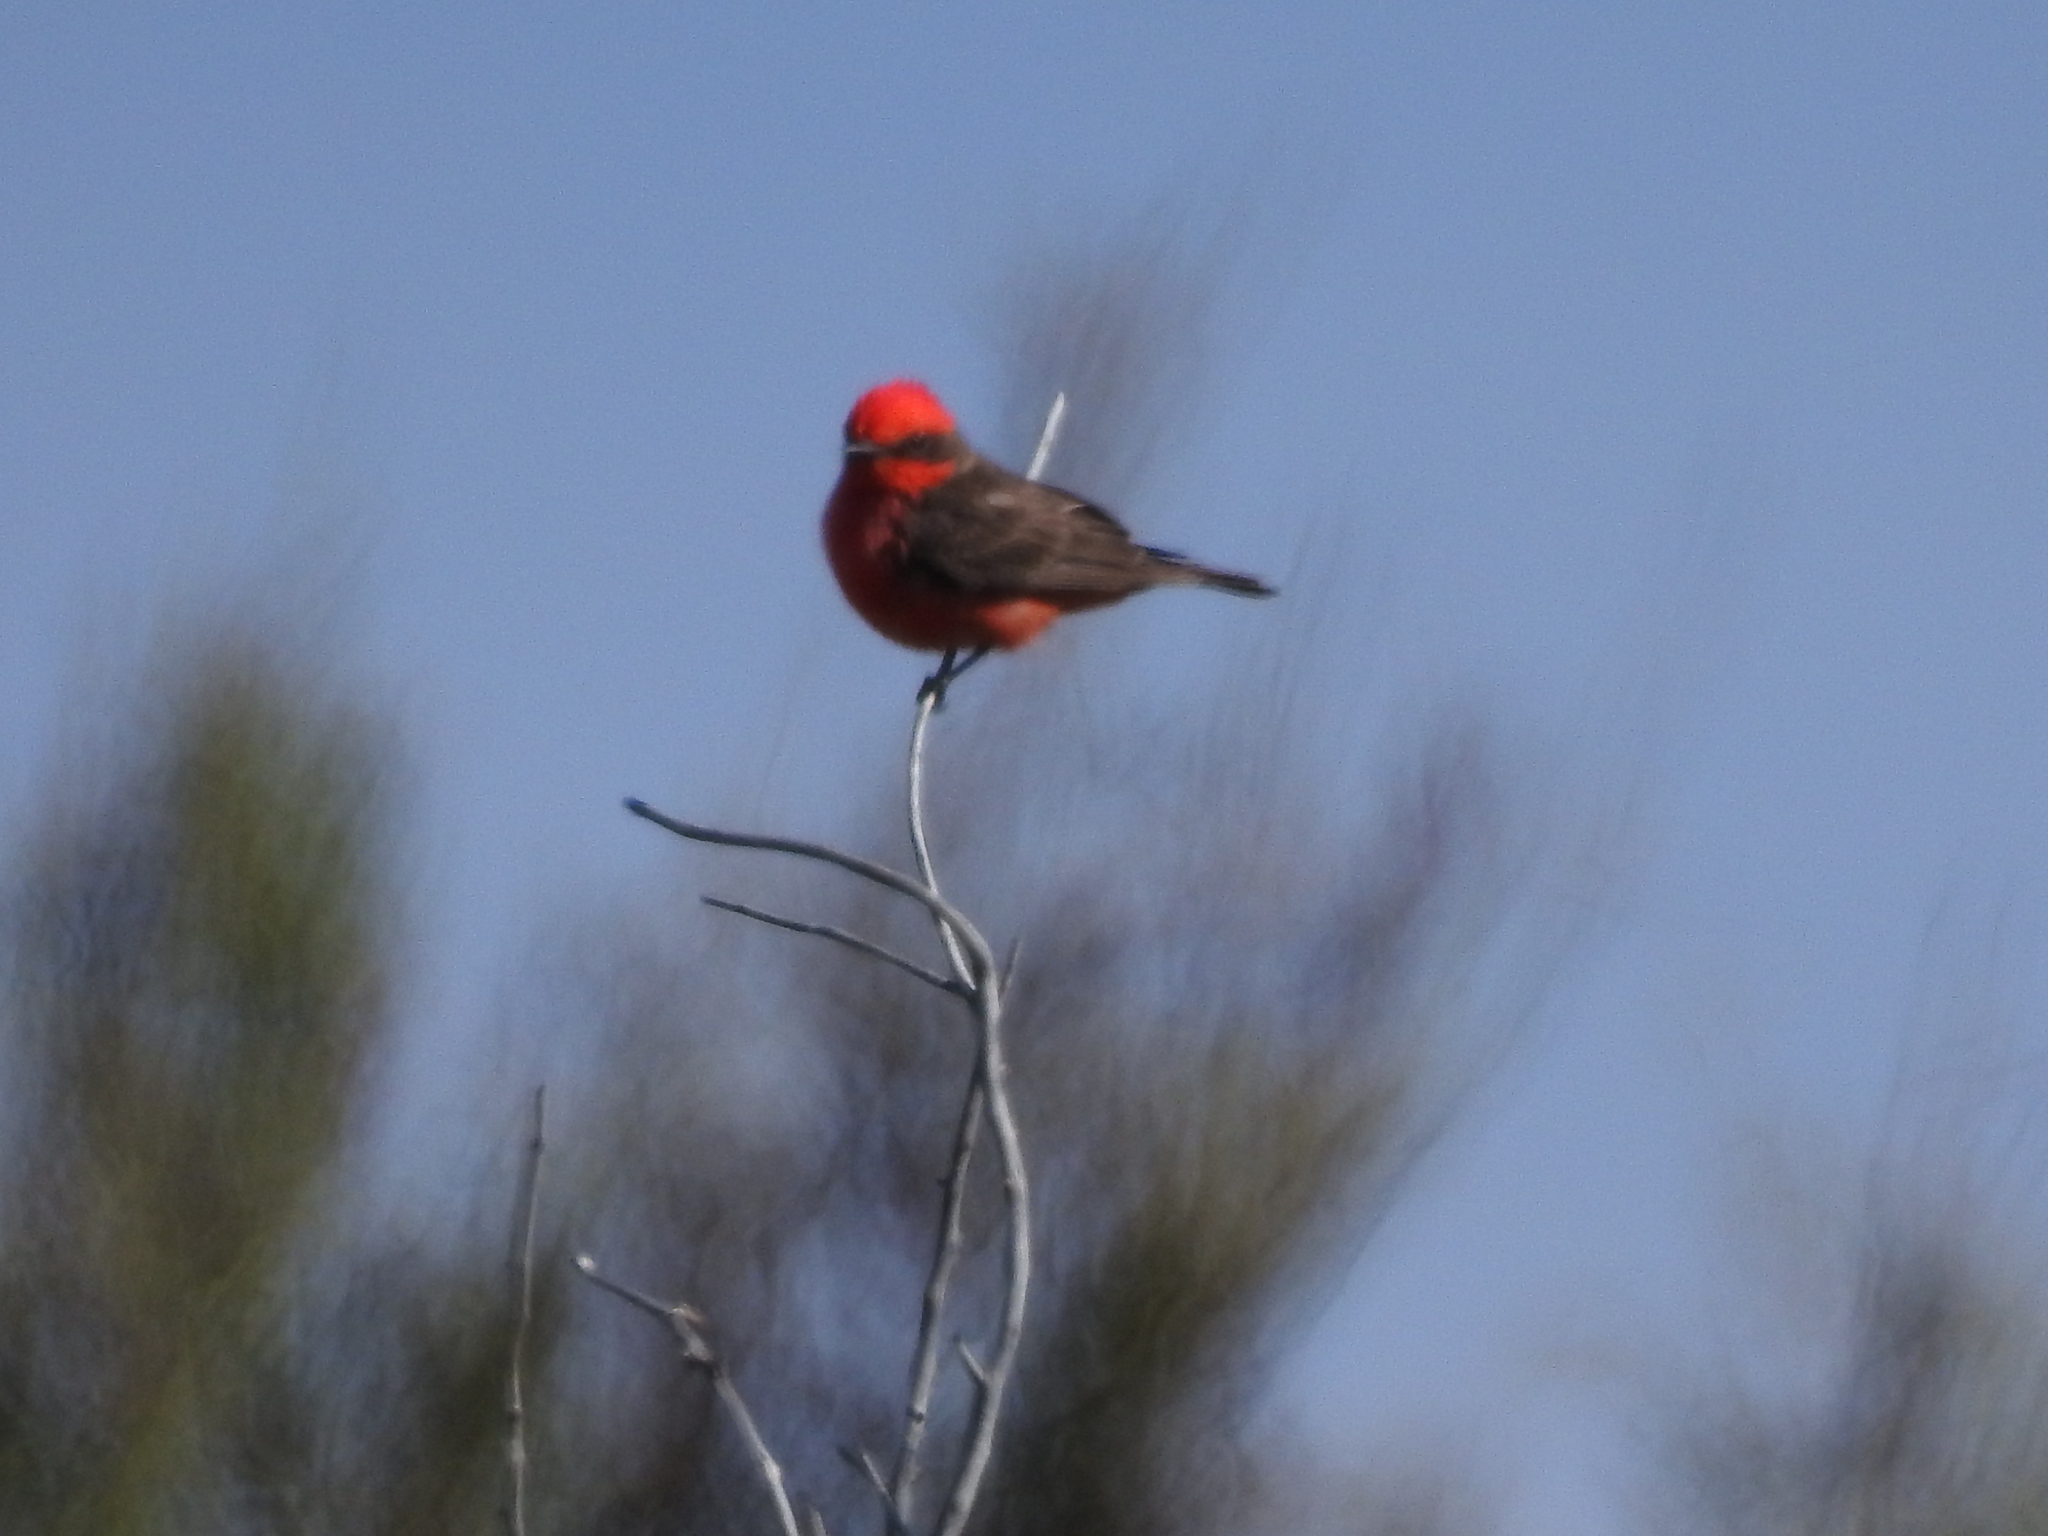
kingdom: Animalia
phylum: Chordata
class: Aves
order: Passeriformes
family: Tyrannidae
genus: Pyrocephalus
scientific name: Pyrocephalus rubinus
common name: Vermilion flycatcher
